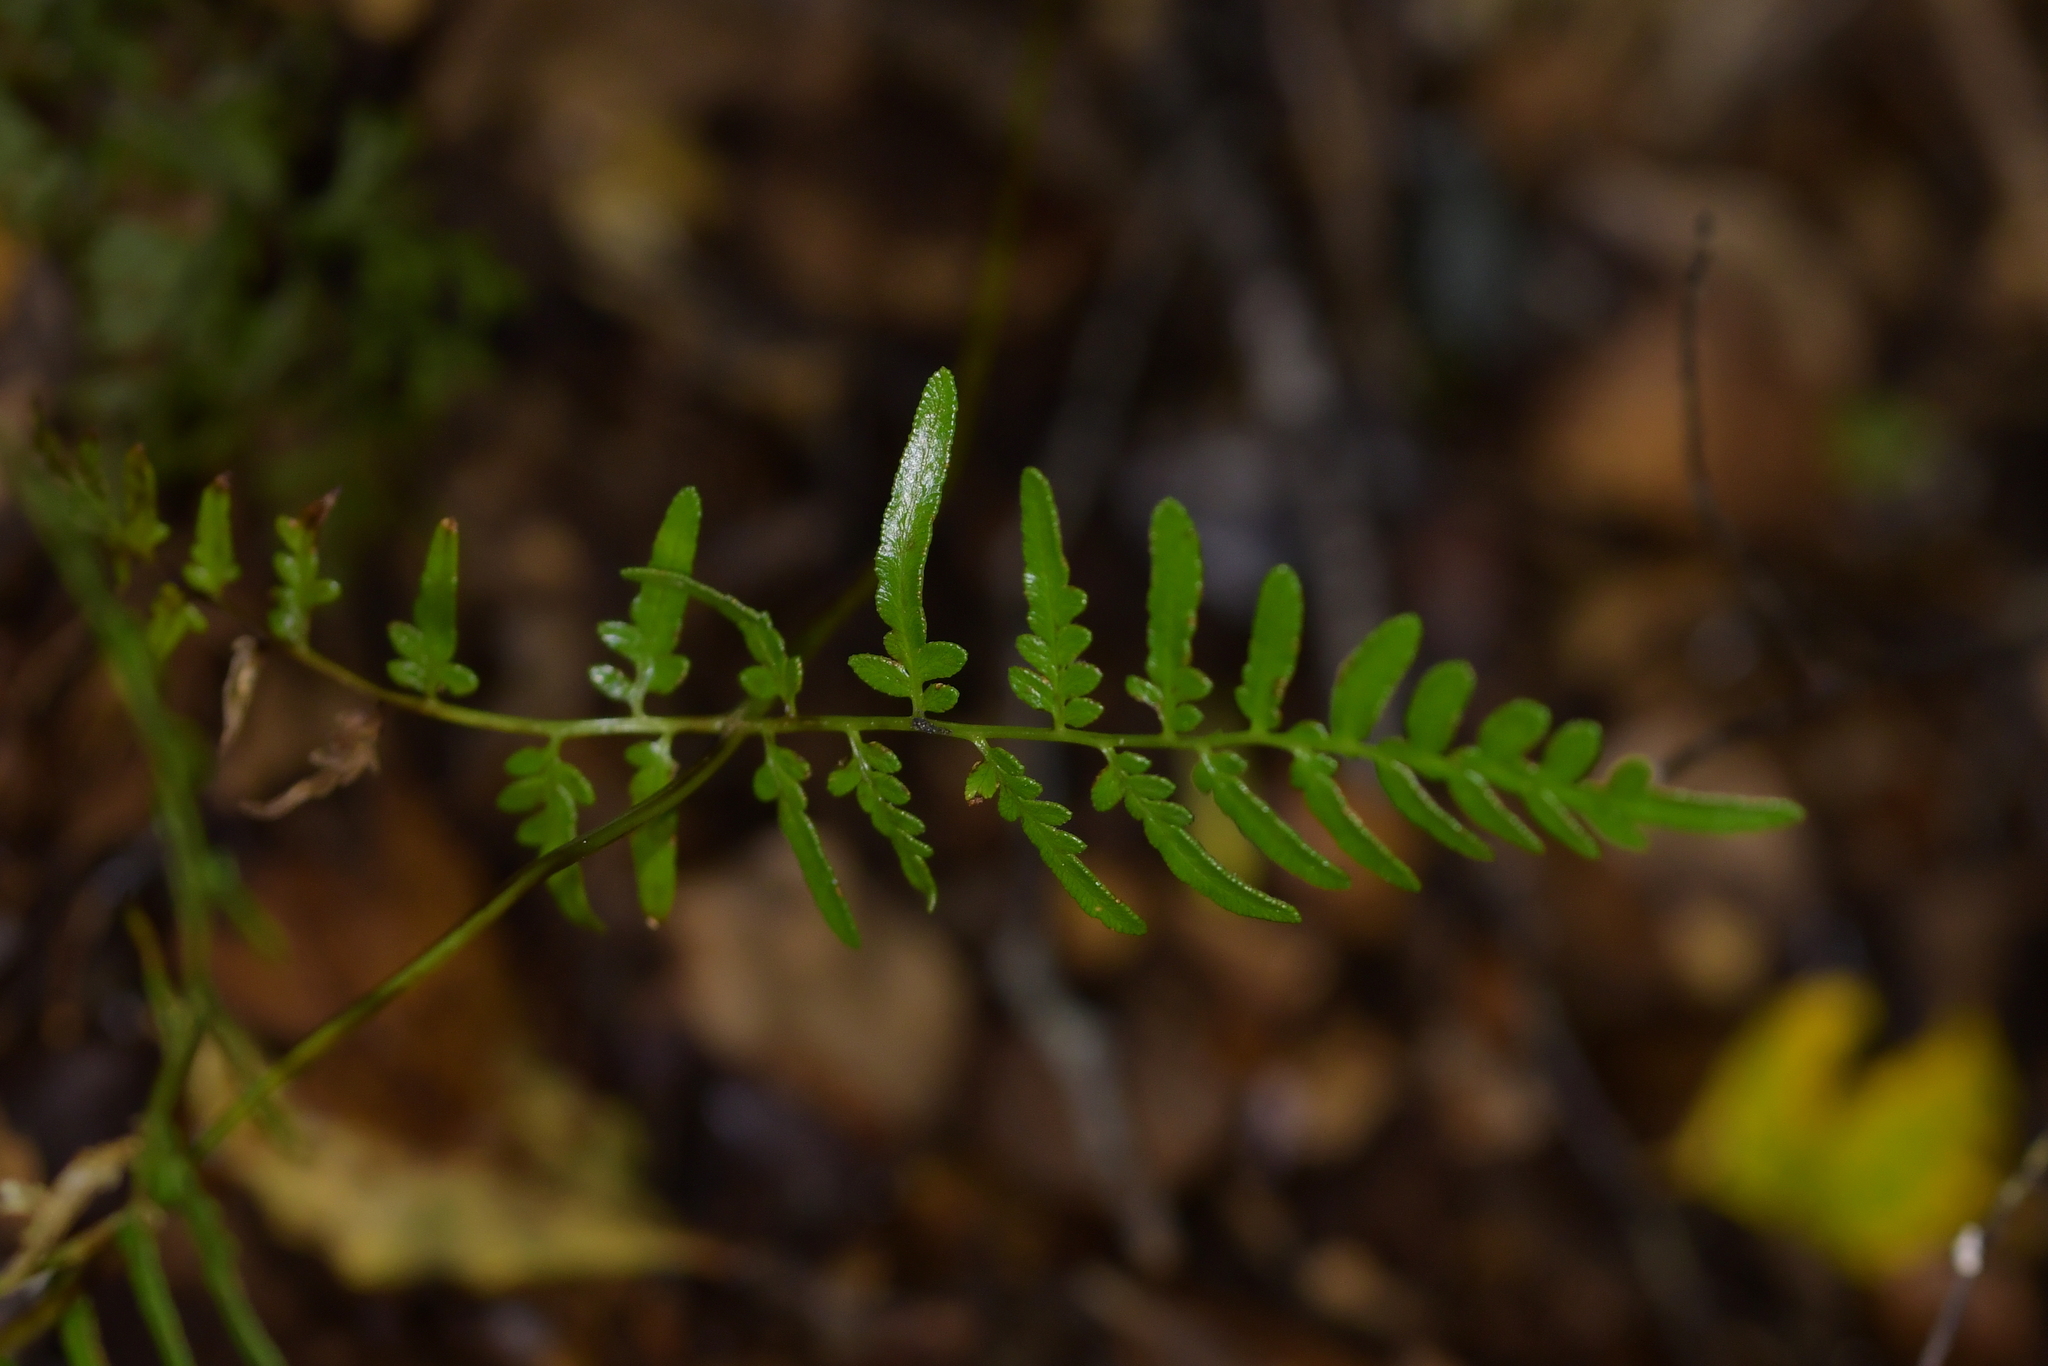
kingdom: Plantae
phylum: Tracheophyta
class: Polypodiopsida
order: Polypodiales
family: Dennstaedtiaceae
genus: Pteridium
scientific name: Pteridium esculentum
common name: Bracken fern
